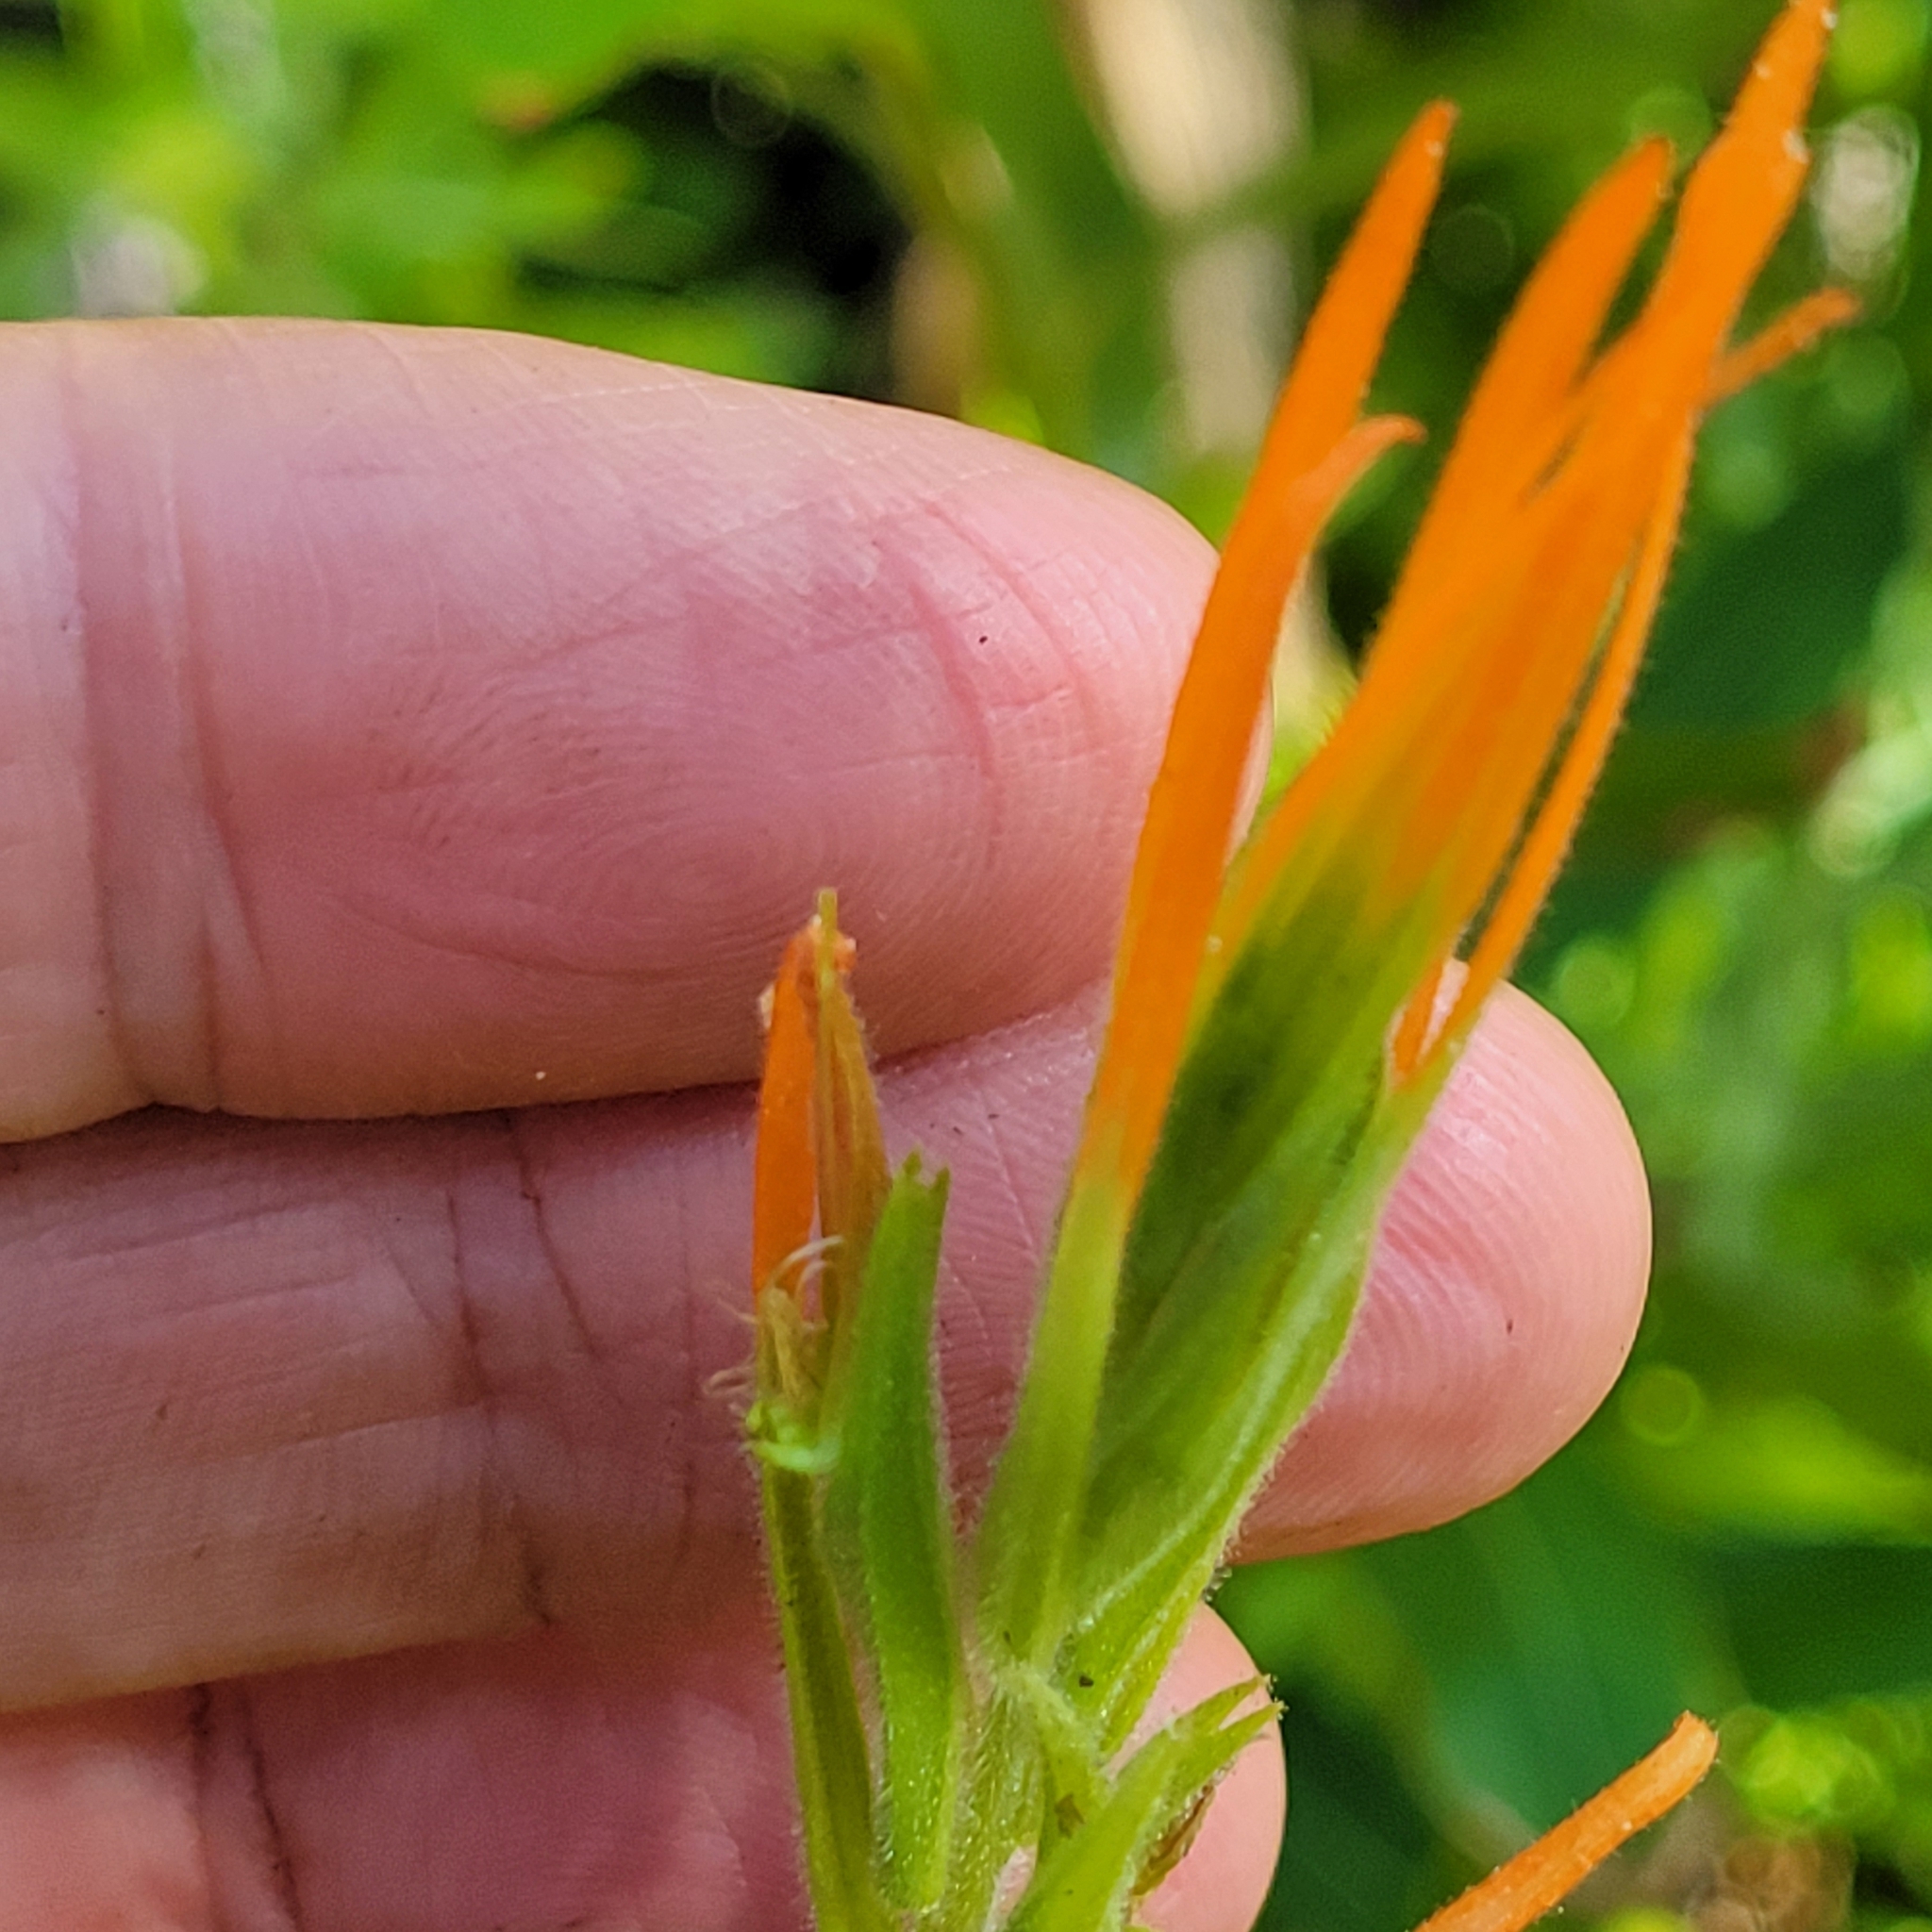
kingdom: Plantae
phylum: Tracheophyta
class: Magnoliopsida
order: Lamiales
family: Orobanchaceae
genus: Castilleja
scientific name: Castilleja minor
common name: Seep paintbrush
